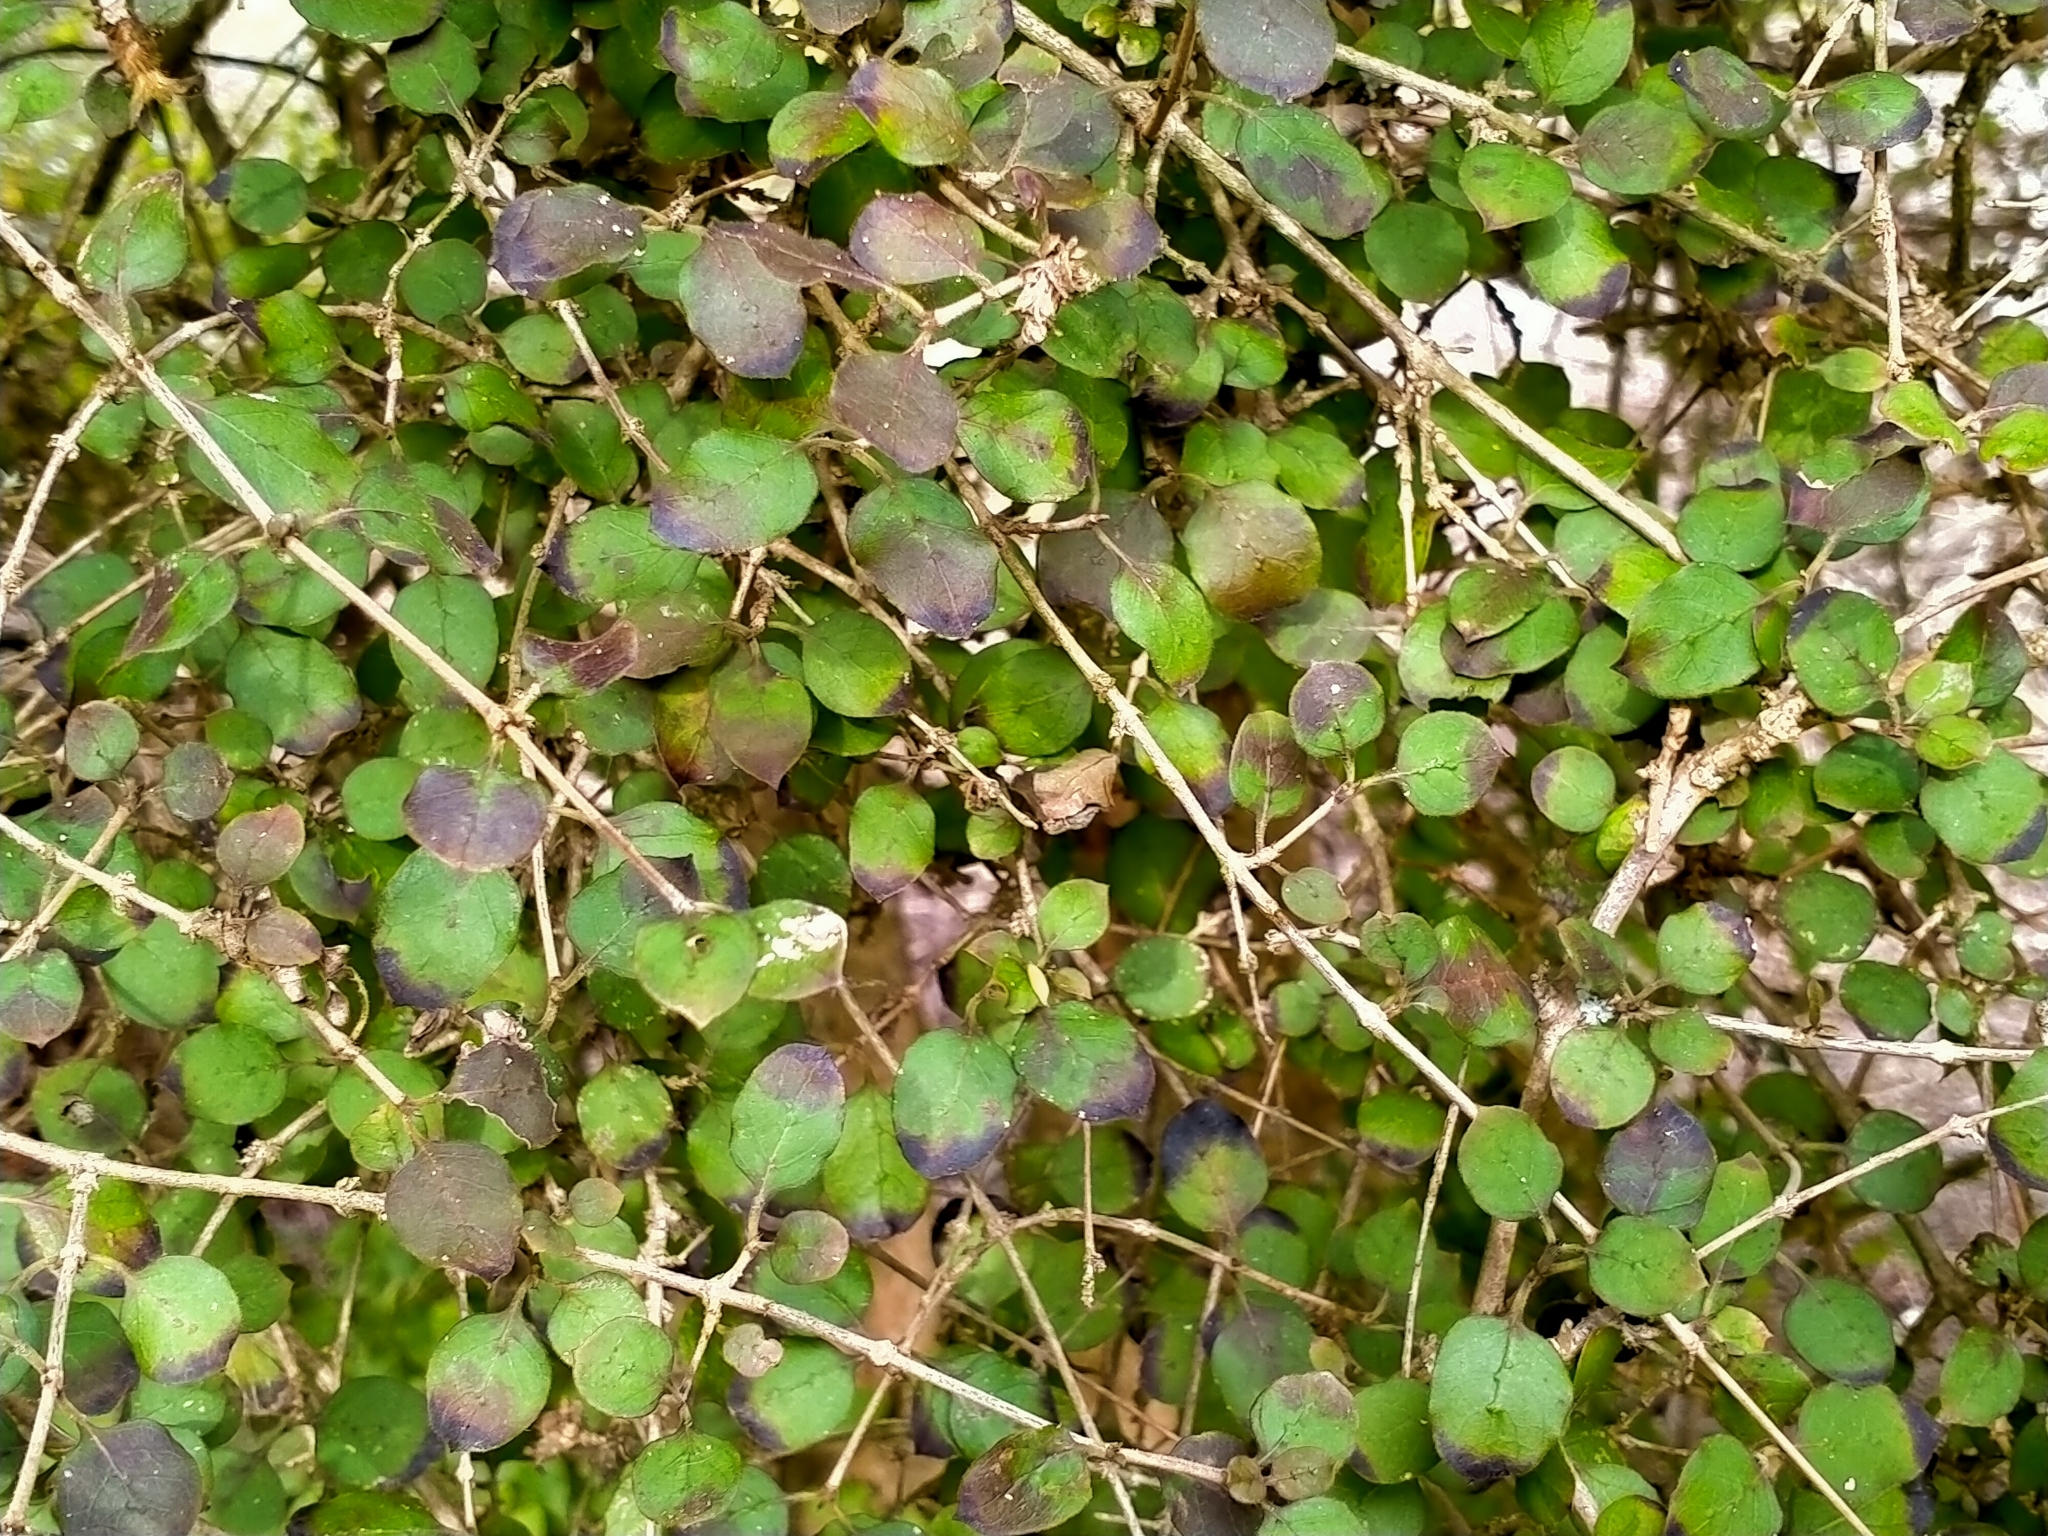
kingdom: Plantae
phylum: Tracheophyta
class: Magnoliopsida
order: Gentianales
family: Rubiaceae
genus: Coprosma
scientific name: Coprosma rotundifolia
